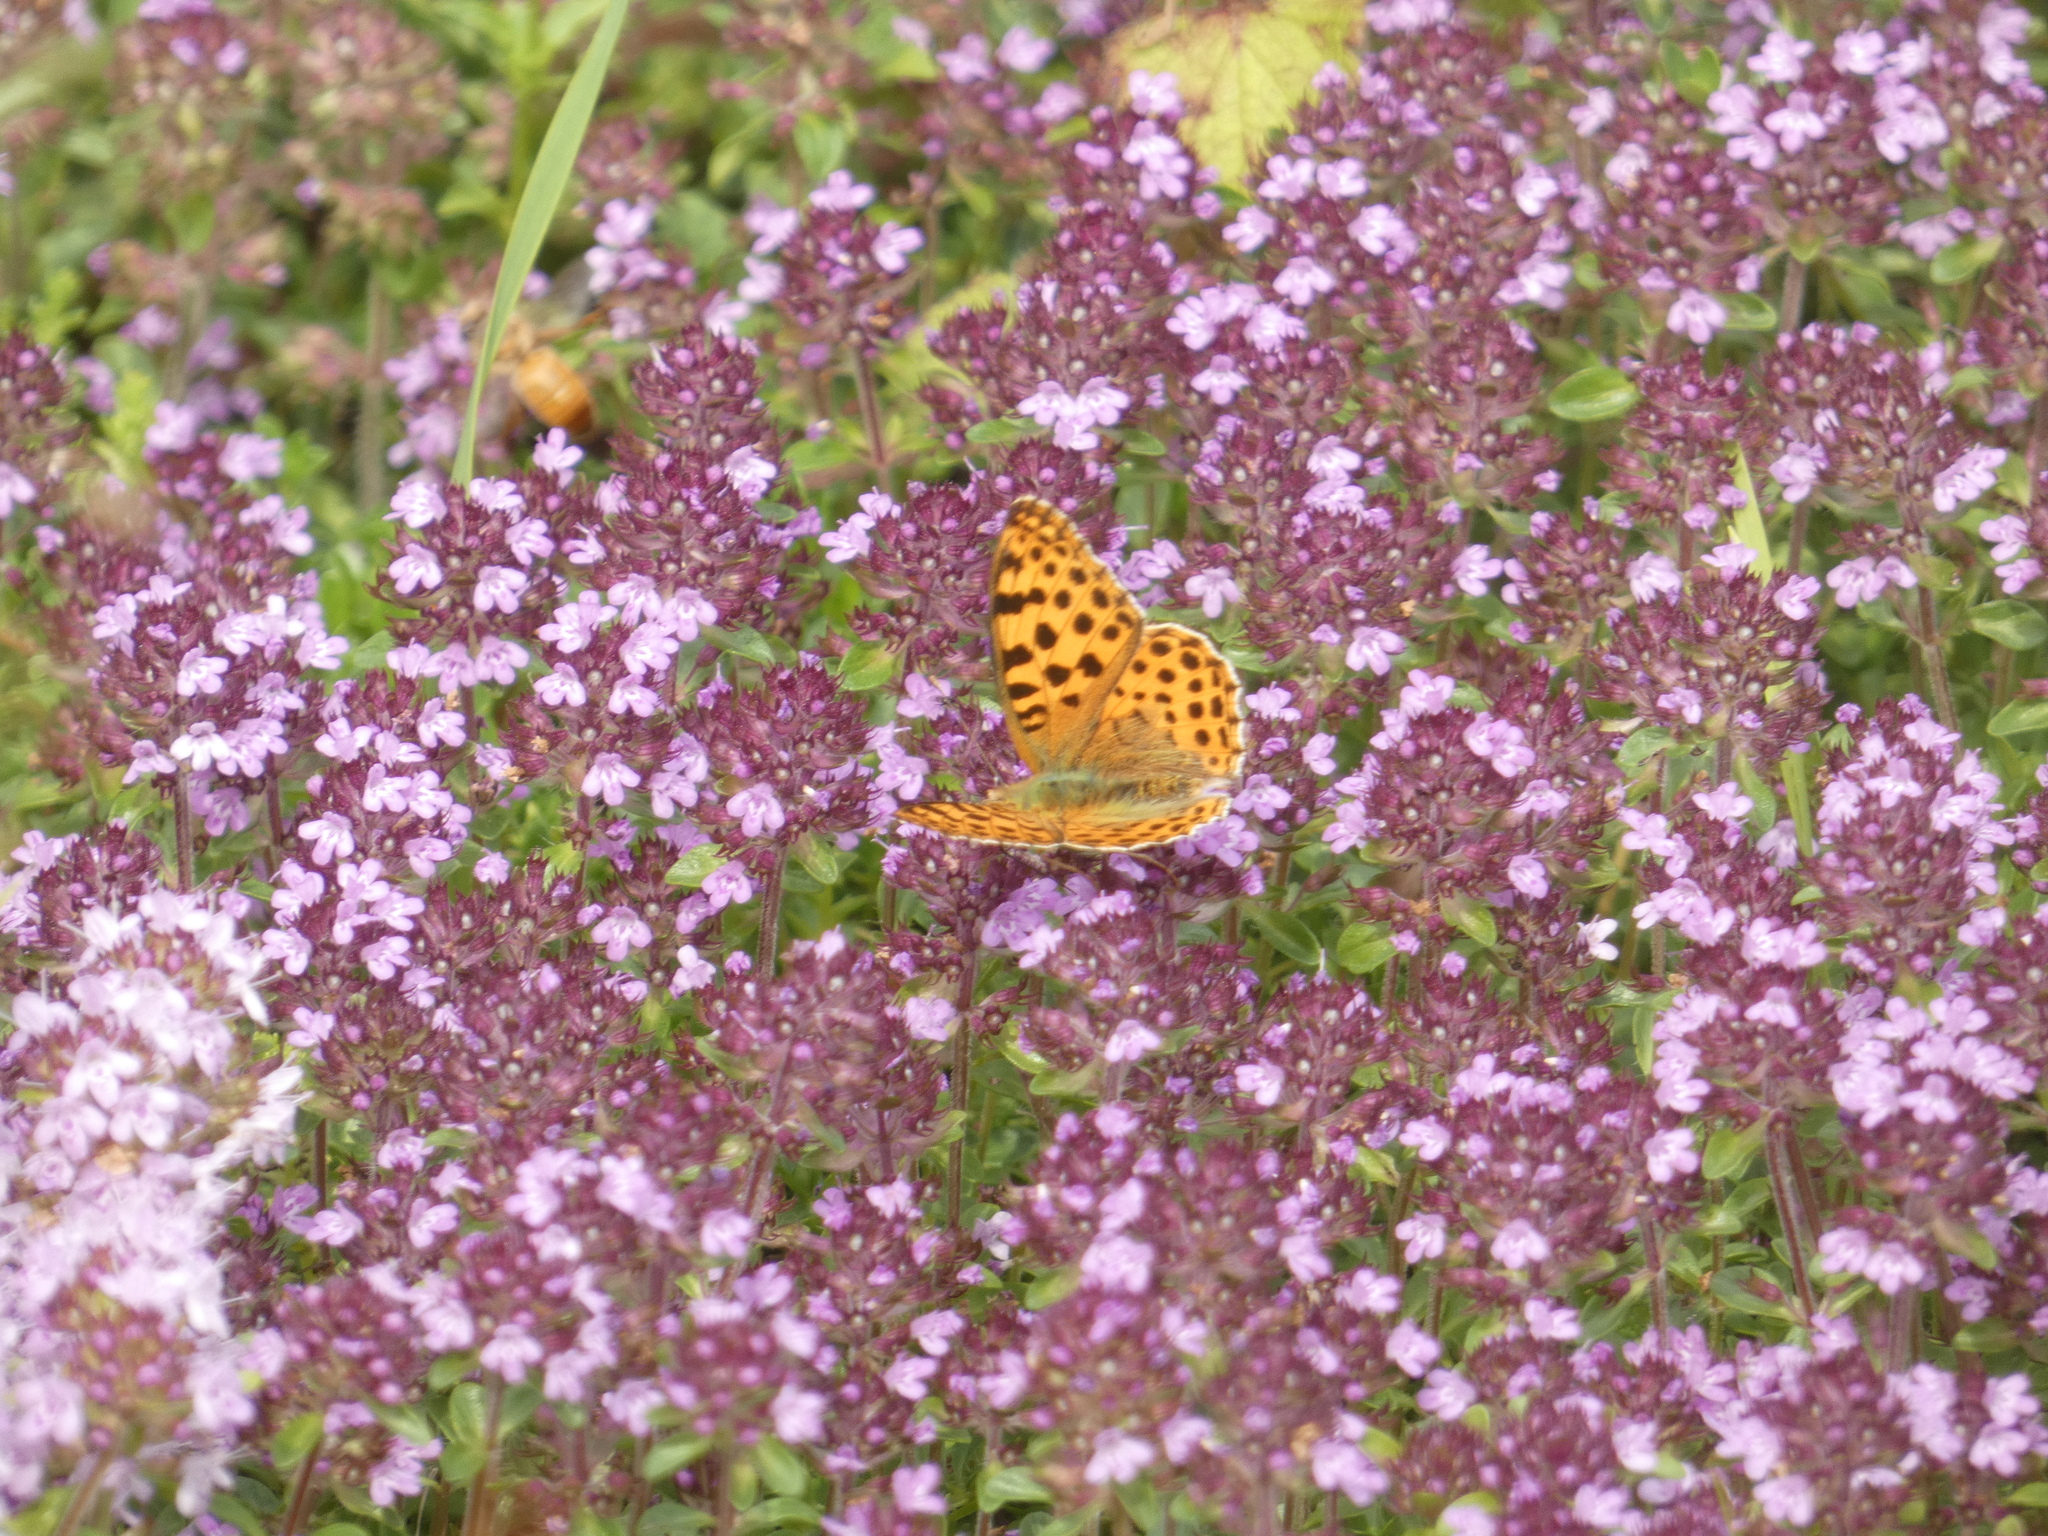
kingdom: Animalia
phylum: Arthropoda
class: Insecta
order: Lepidoptera
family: Nymphalidae
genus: Issoria
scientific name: Issoria lathonia
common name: Queen of spain fritillary
